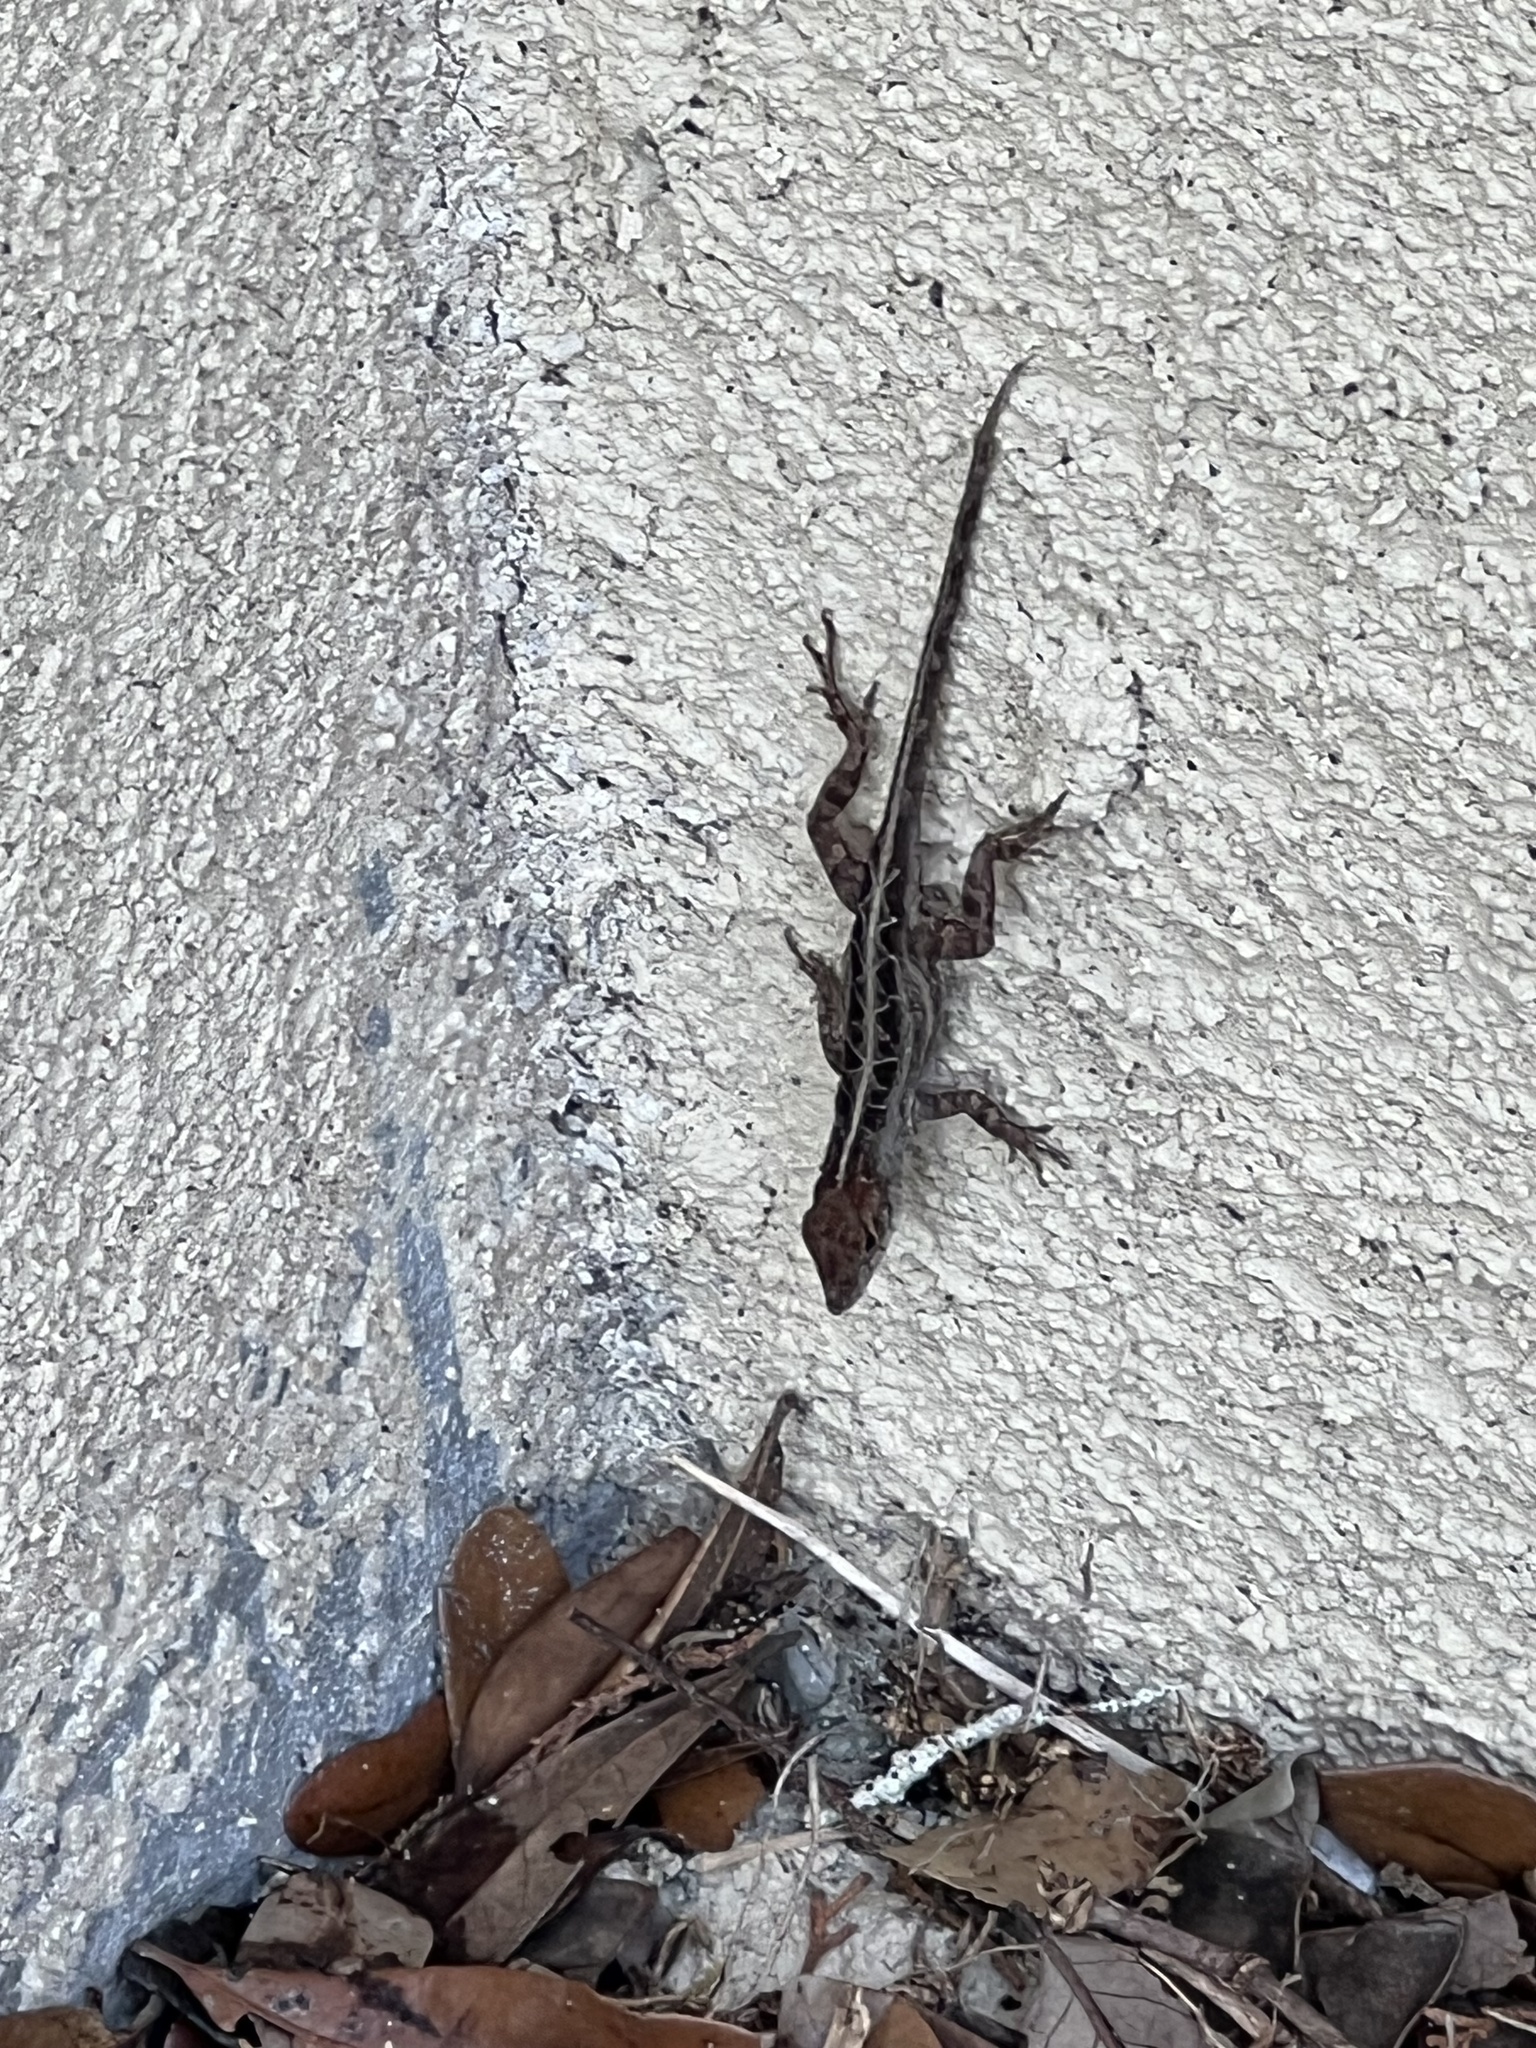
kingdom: Animalia
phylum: Chordata
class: Squamata
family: Dactyloidae
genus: Anolis
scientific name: Anolis sagrei
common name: Brown anole
